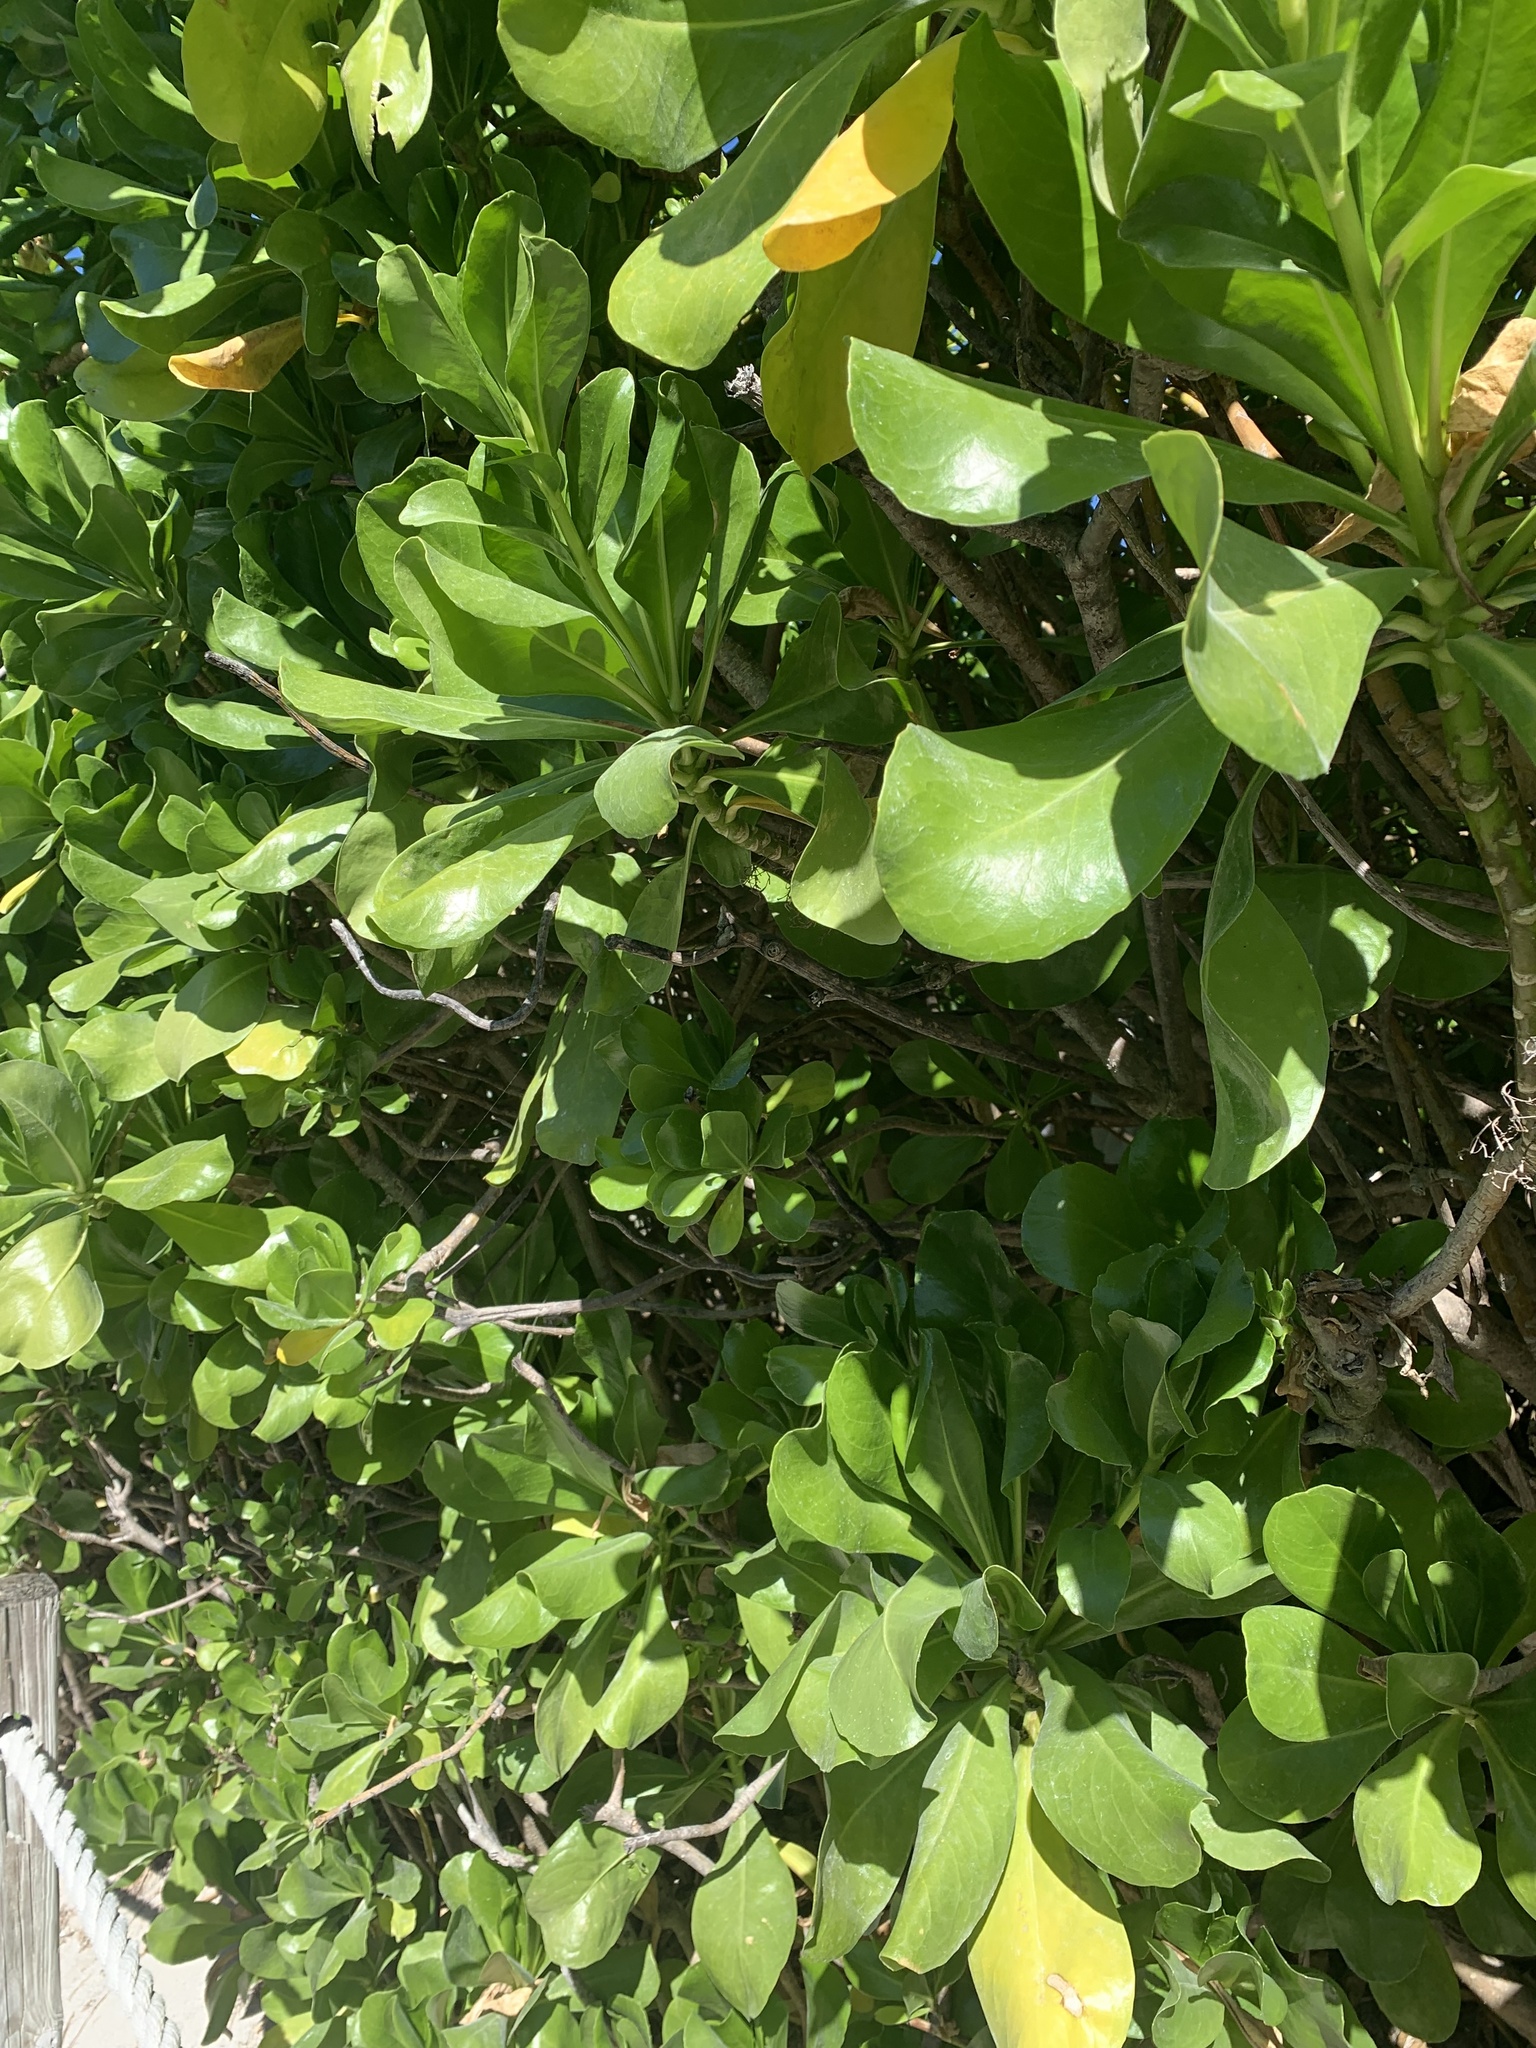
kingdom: Plantae
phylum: Tracheophyta
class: Magnoliopsida
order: Asterales
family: Goodeniaceae
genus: Scaevola
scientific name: Scaevola taccada
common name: Sea lettucetree
